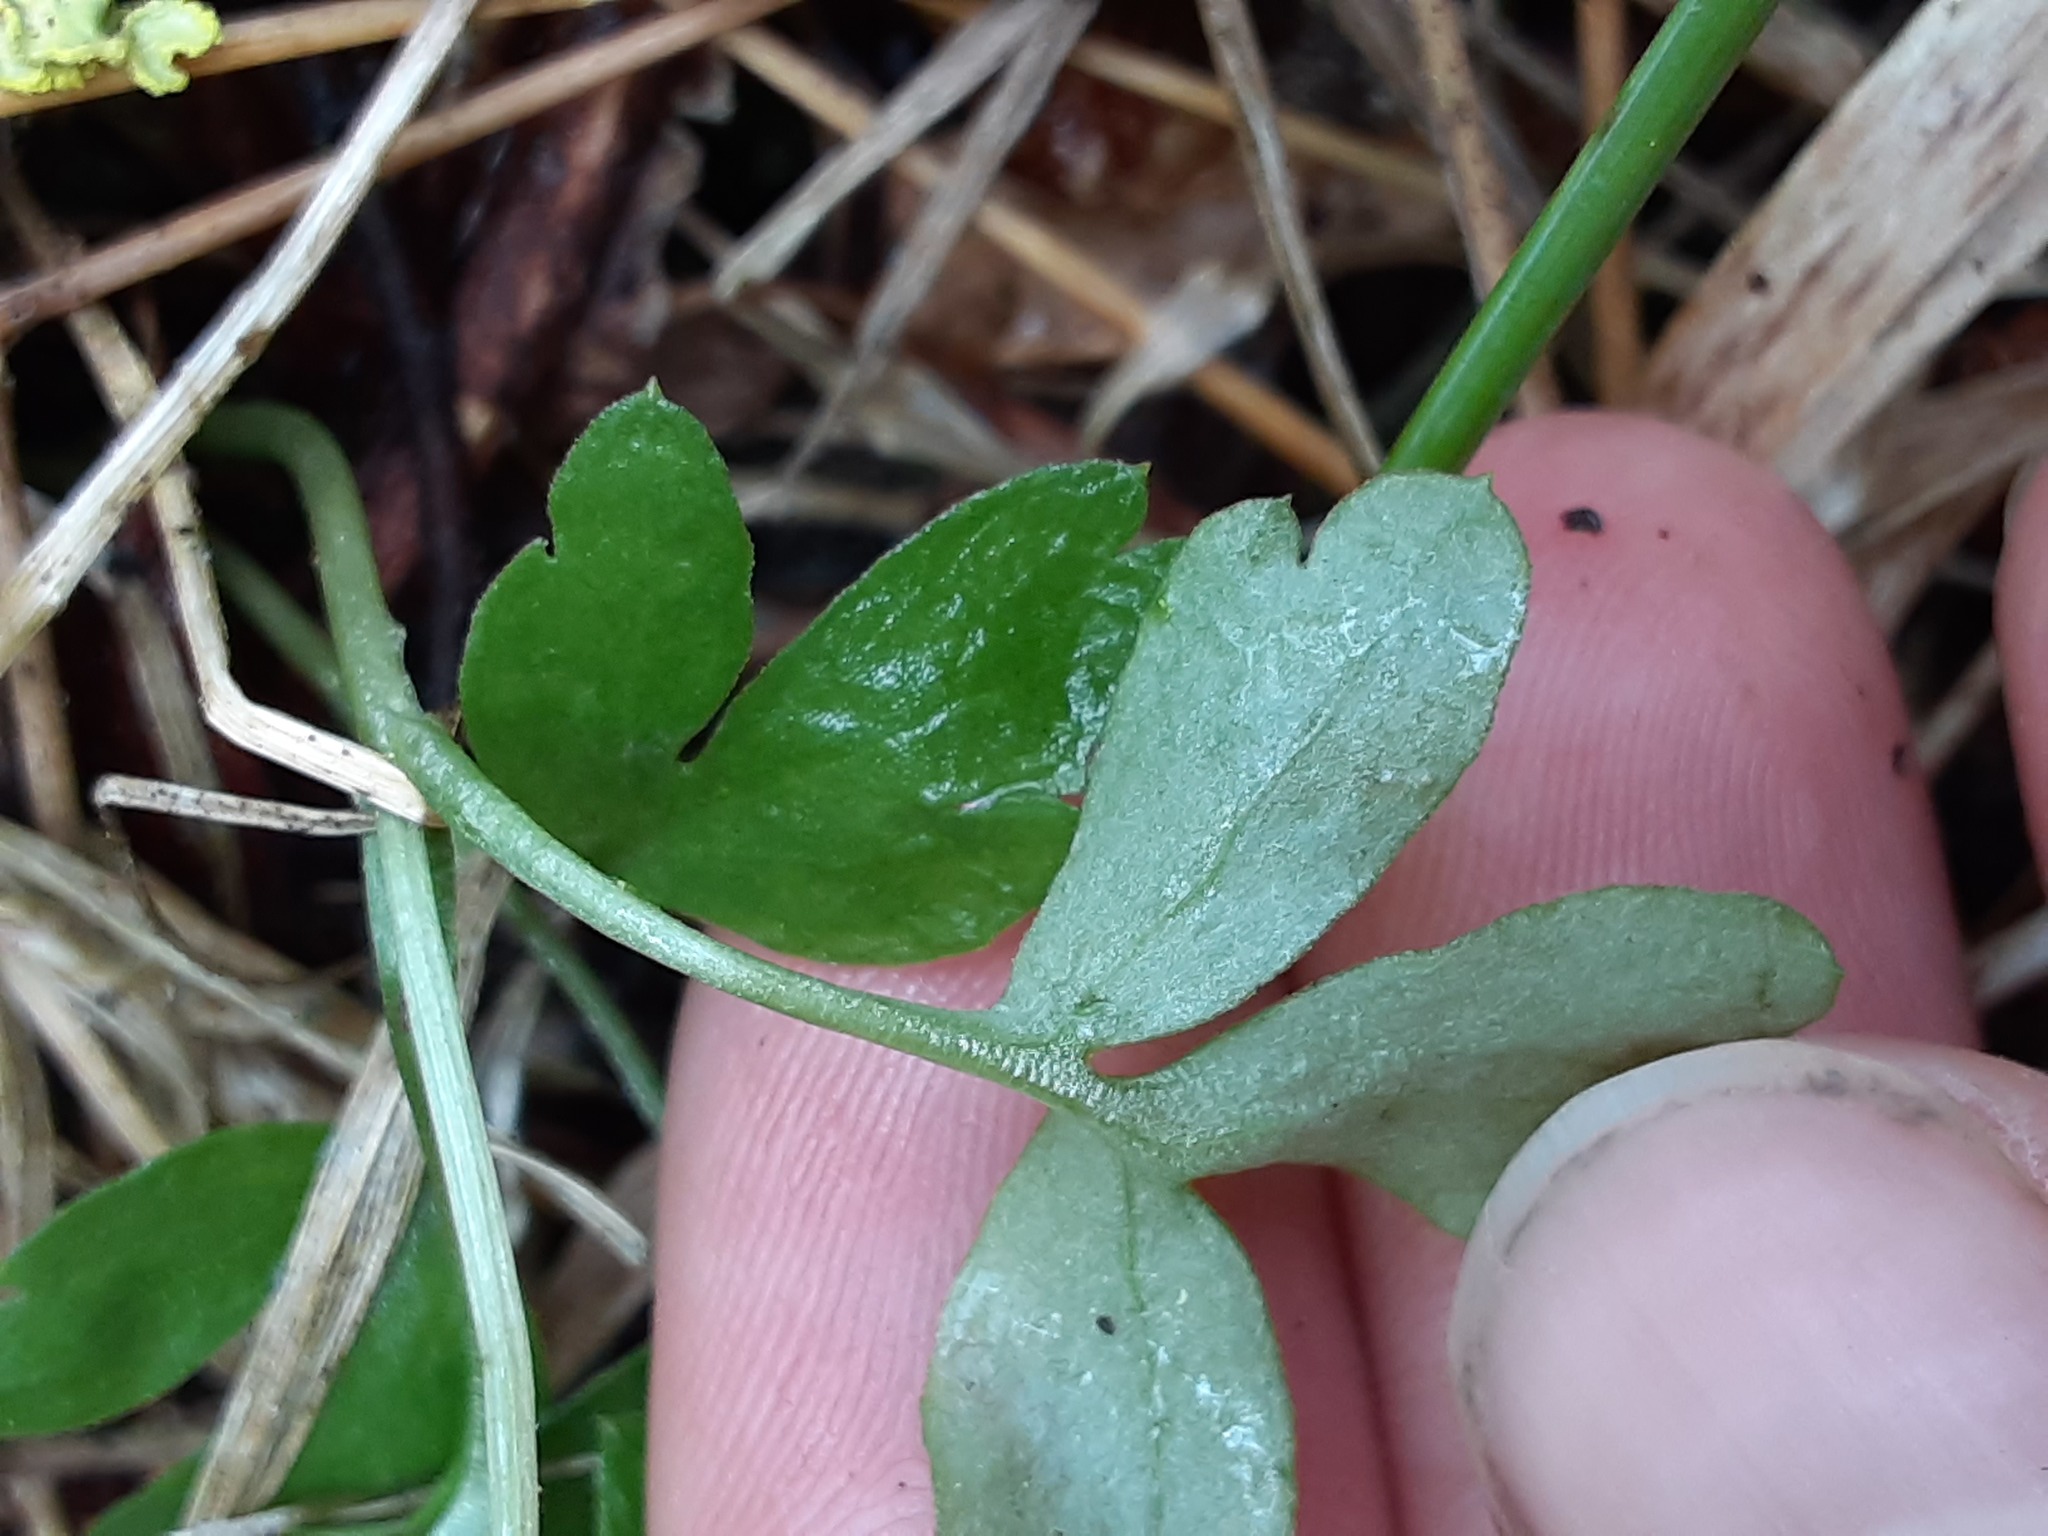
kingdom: Plantae
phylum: Tracheophyta
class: Magnoliopsida
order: Dipsacales
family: Viburnaceae
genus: Adoxa
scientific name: Adoxa moschatellina
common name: Moschatel
